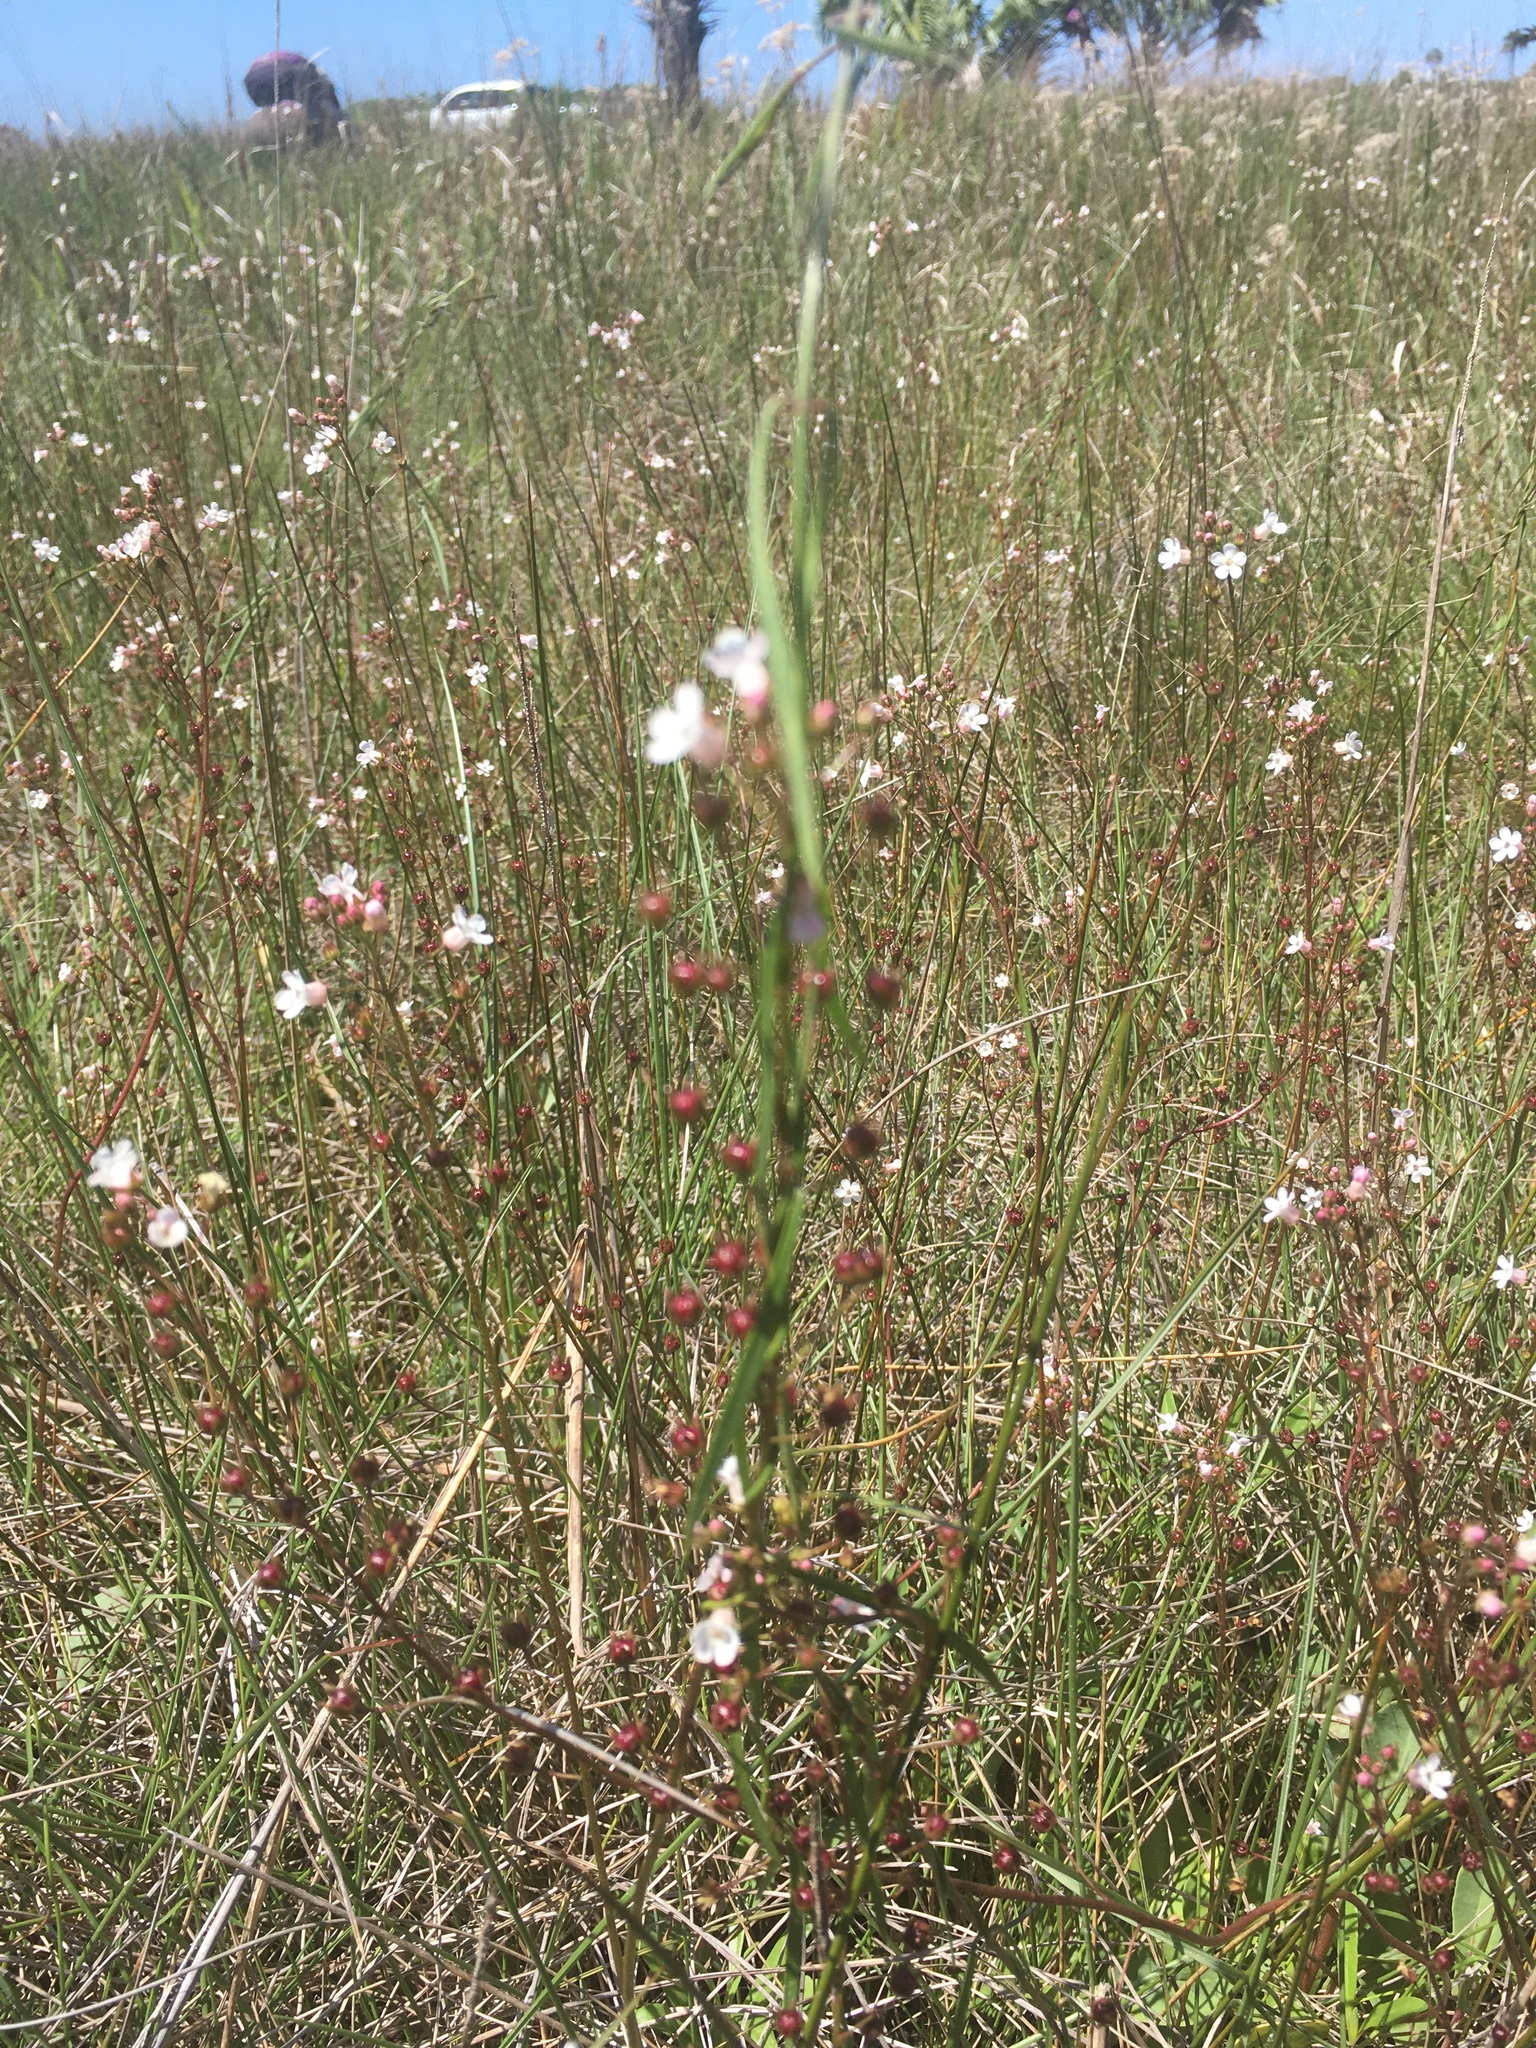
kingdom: Plantae
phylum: Tracheophyta
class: Magnoliopsida
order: Ericales
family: Primulaceae
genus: Samolus
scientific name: Samolus ebracteatus
